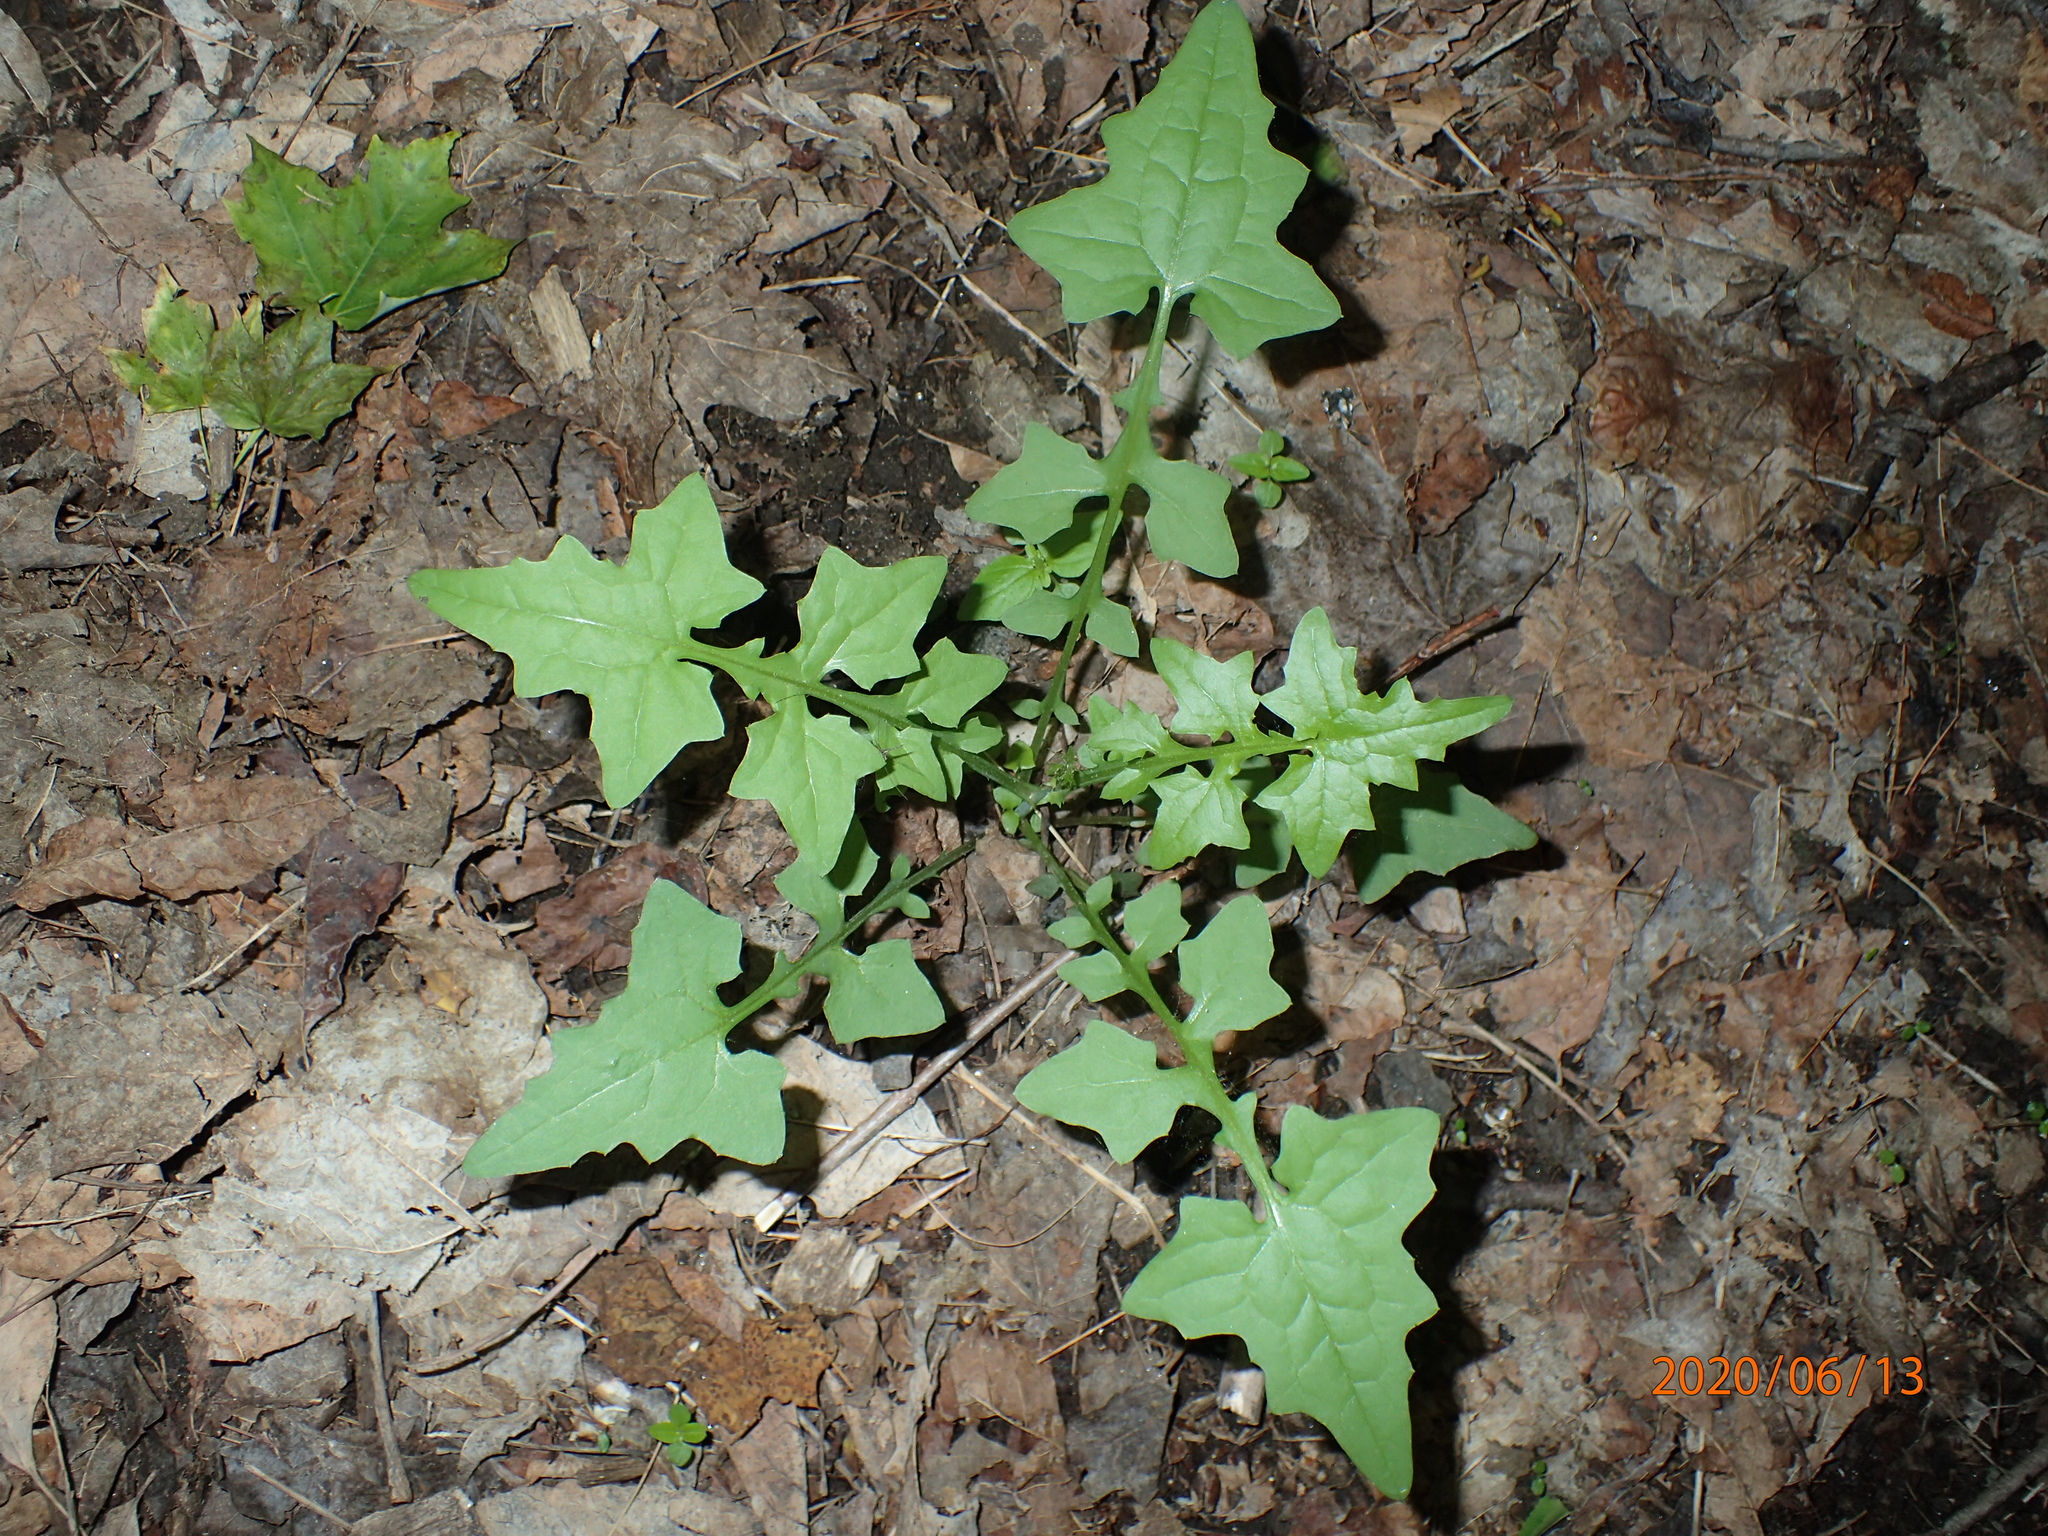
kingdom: Plantae
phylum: Tracheophyta
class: Magnoliopsida
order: Asterales
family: Asteraceae
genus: Mycelis
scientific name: Mycelis muralis
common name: Wall lettuce
